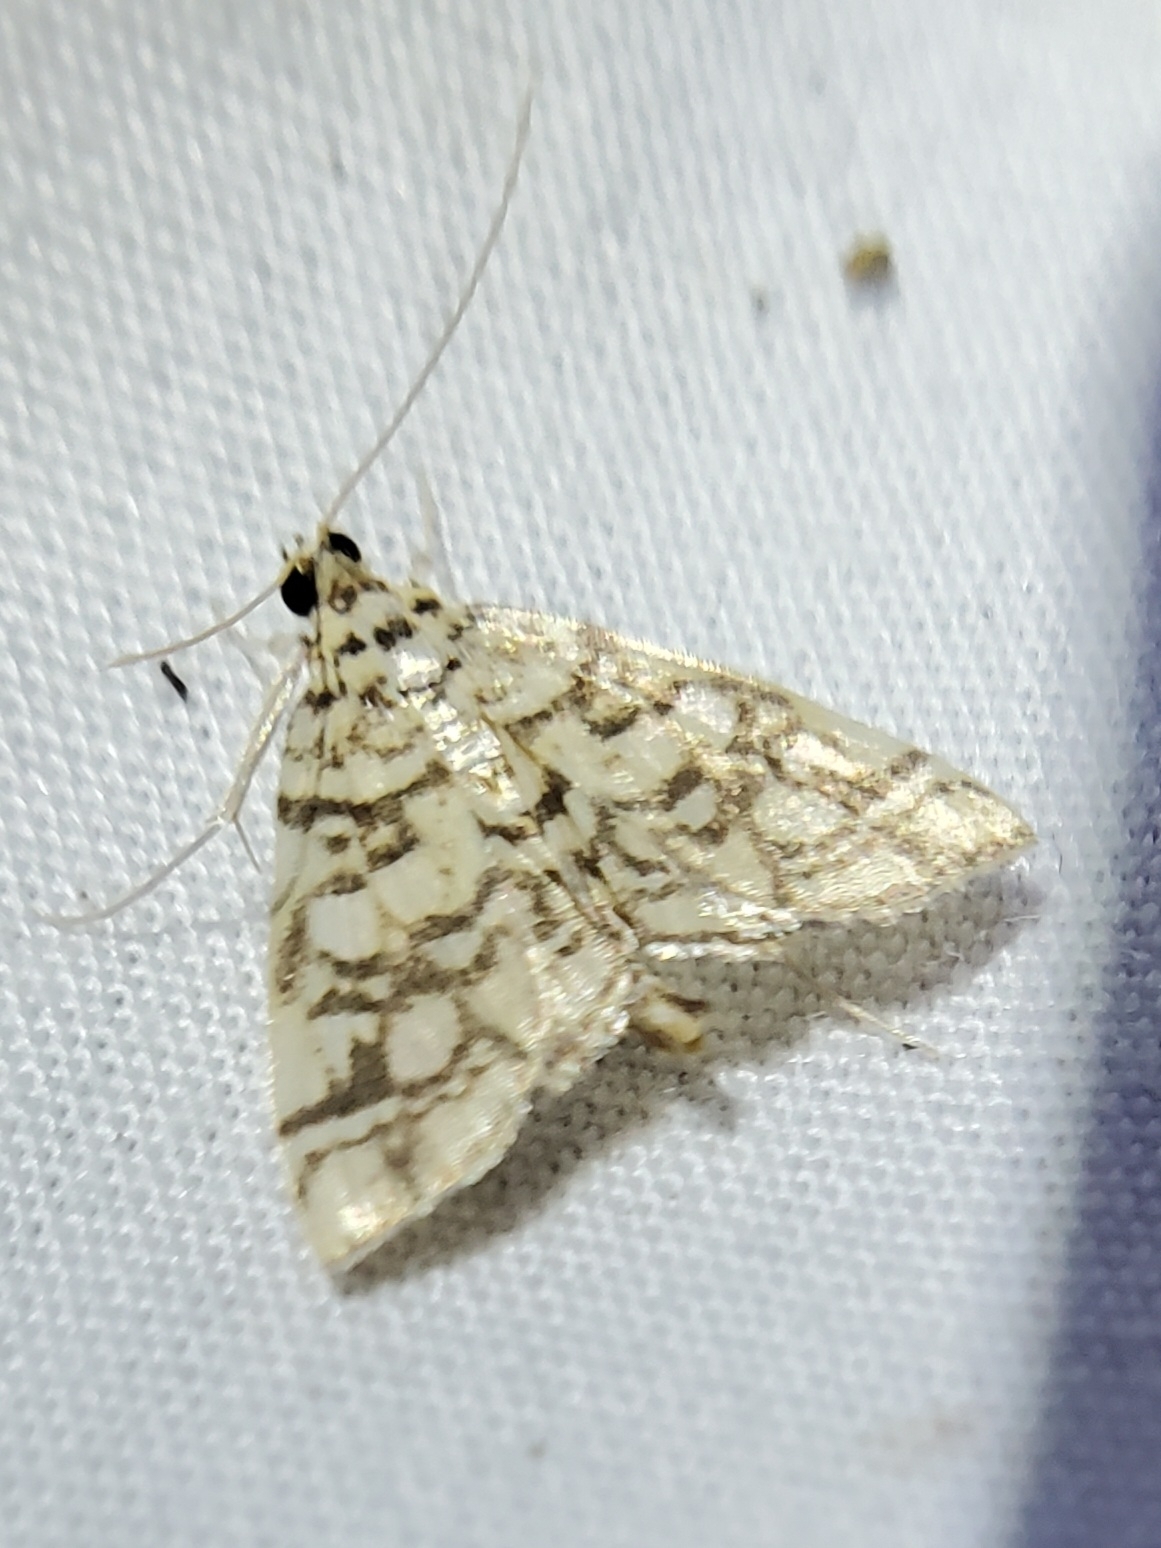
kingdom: Animalia
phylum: Arthropoda
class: Insecta
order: Lepidoptera
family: Crambidae
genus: Lygropia
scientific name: Lygropia rivulalis
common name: Bog lygropia moth
